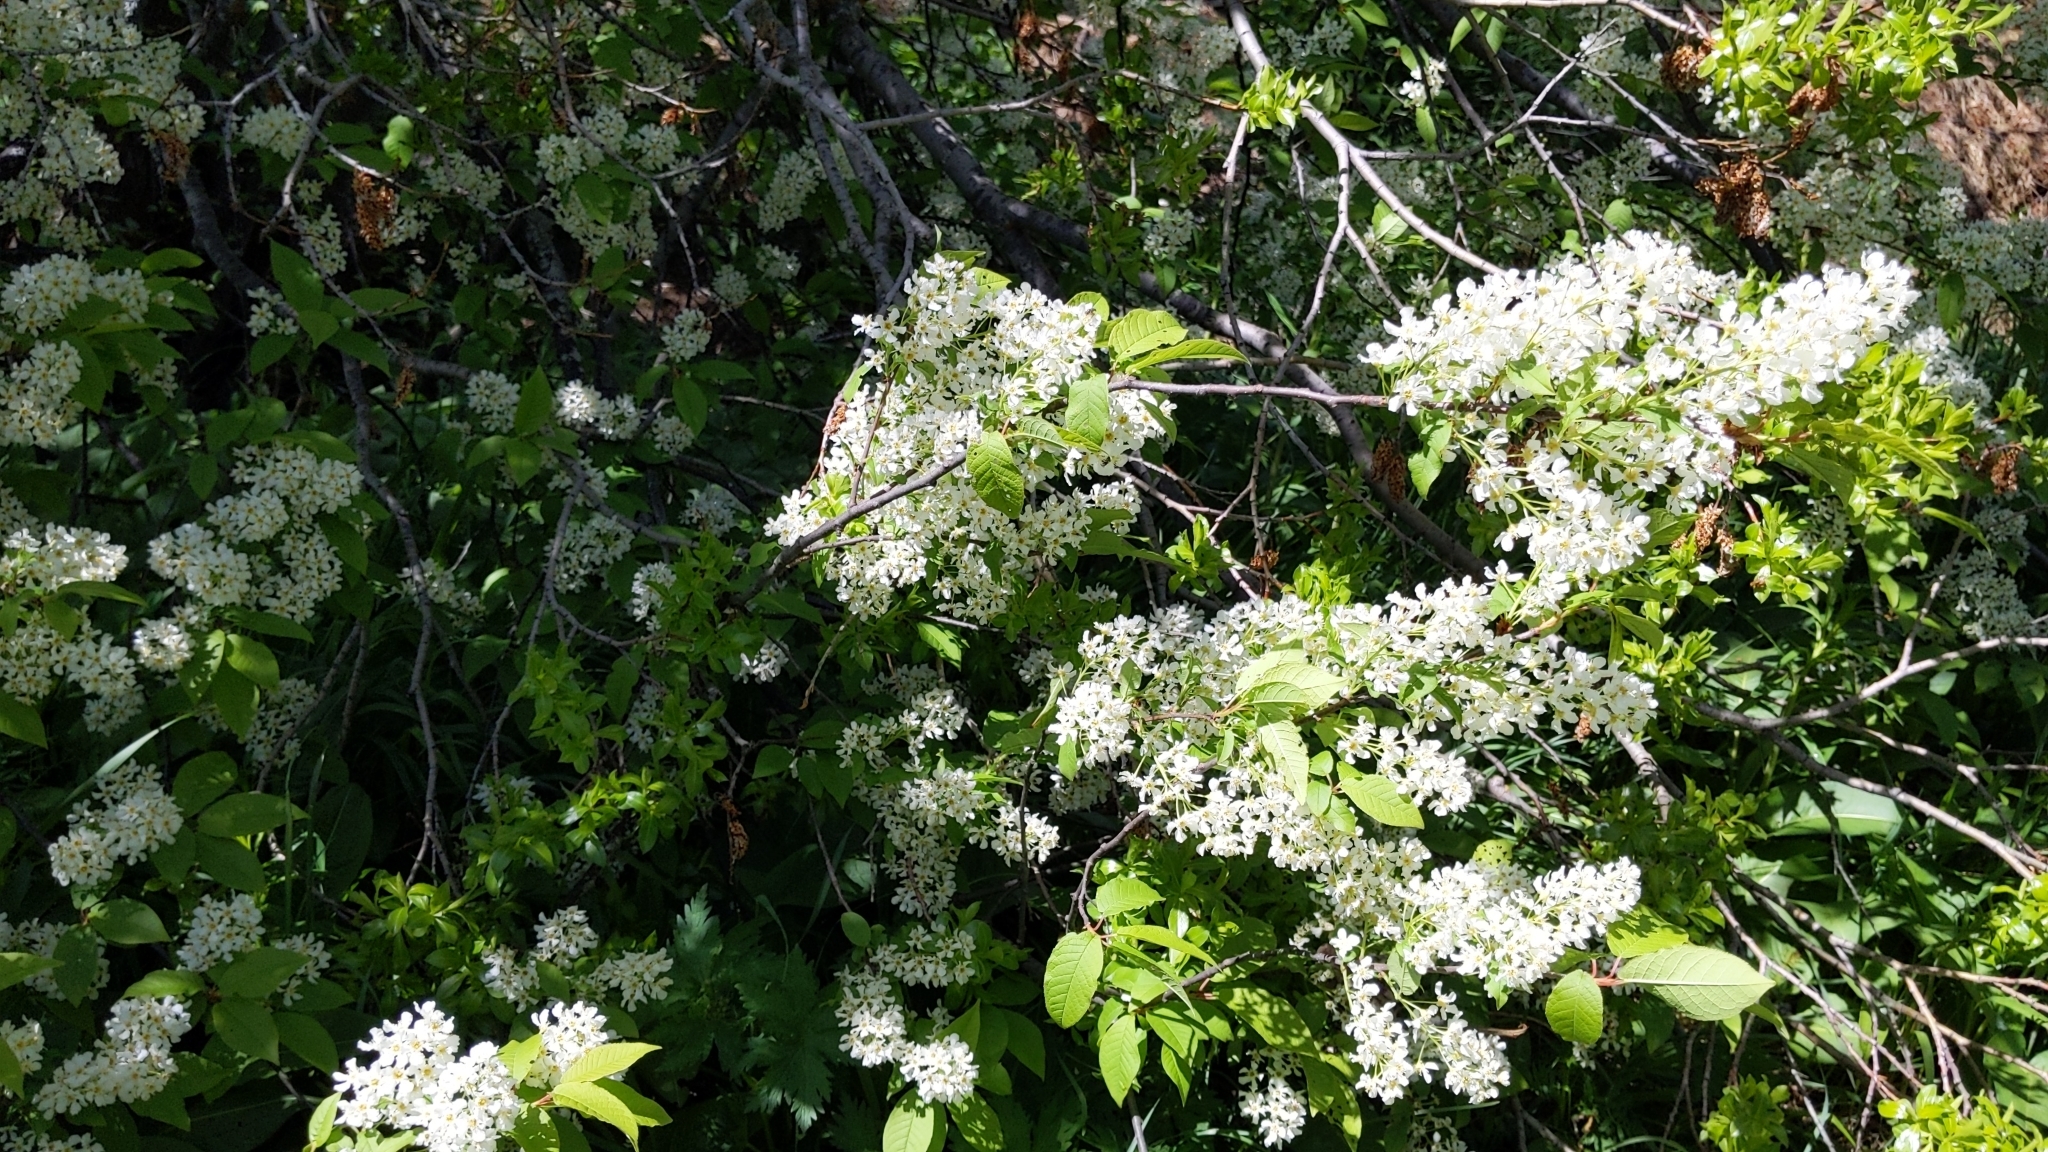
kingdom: Plantae
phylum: Tracheophyta
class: Magnoliopsida
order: Rosales
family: Rosaceae
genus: Prunus
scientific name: Prunus padus
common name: Bird cherry
